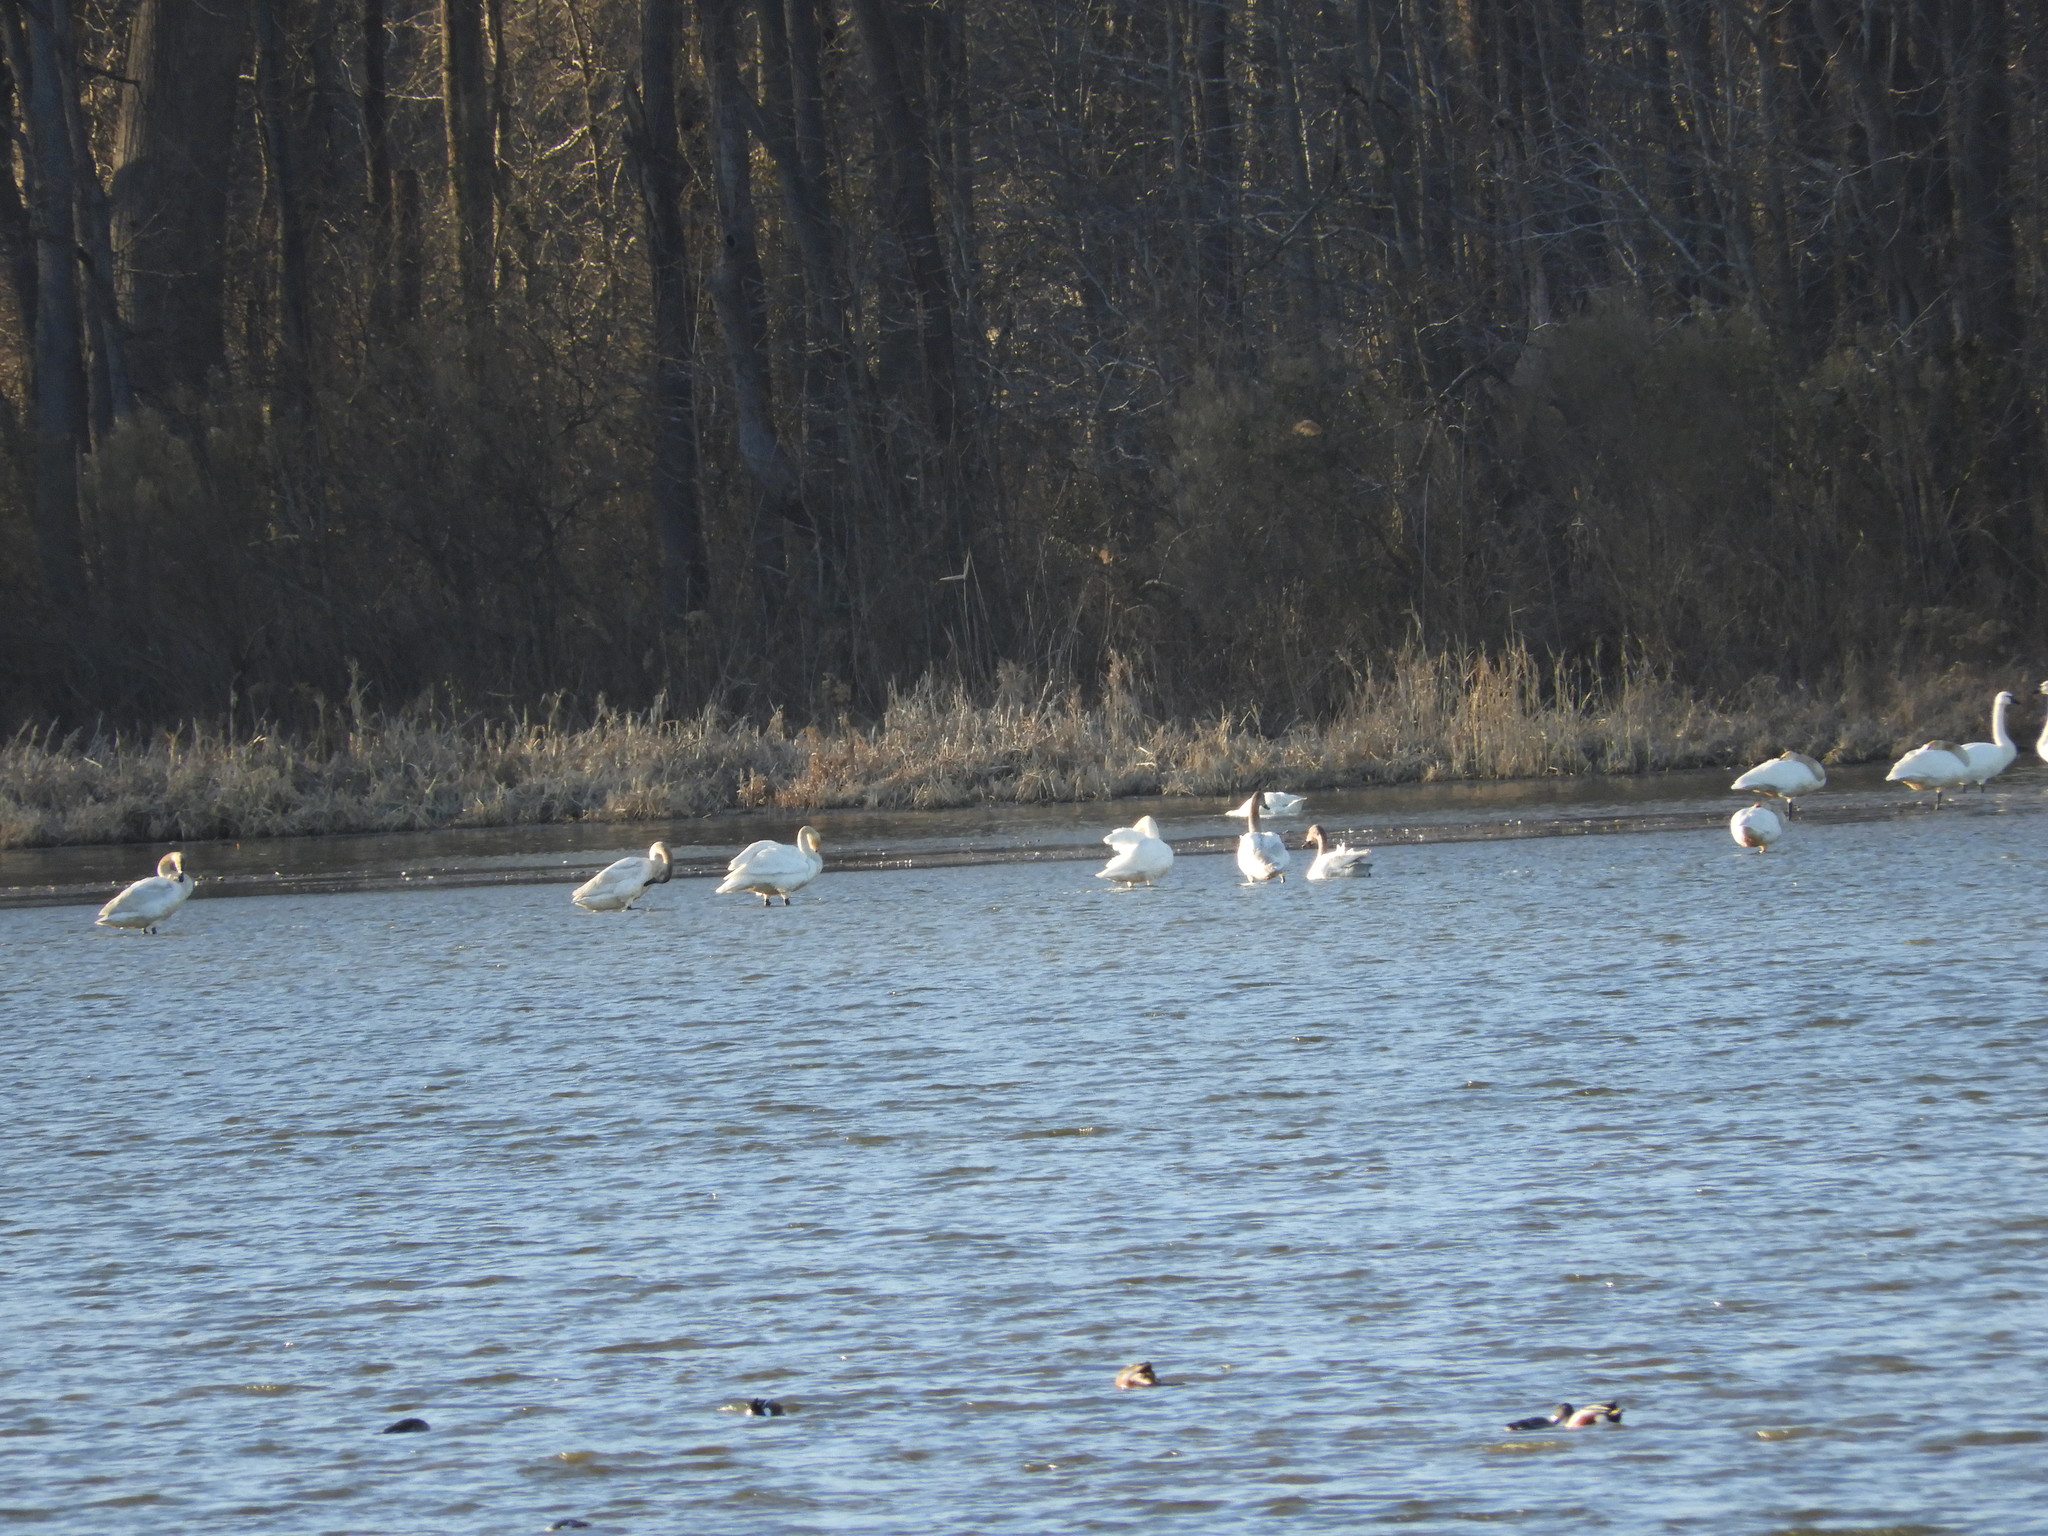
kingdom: Animalia
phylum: Chordata
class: Aves
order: Anseriformes
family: Anatidae
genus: Cygnus
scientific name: Cygnus columbianus
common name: Tundra swan
